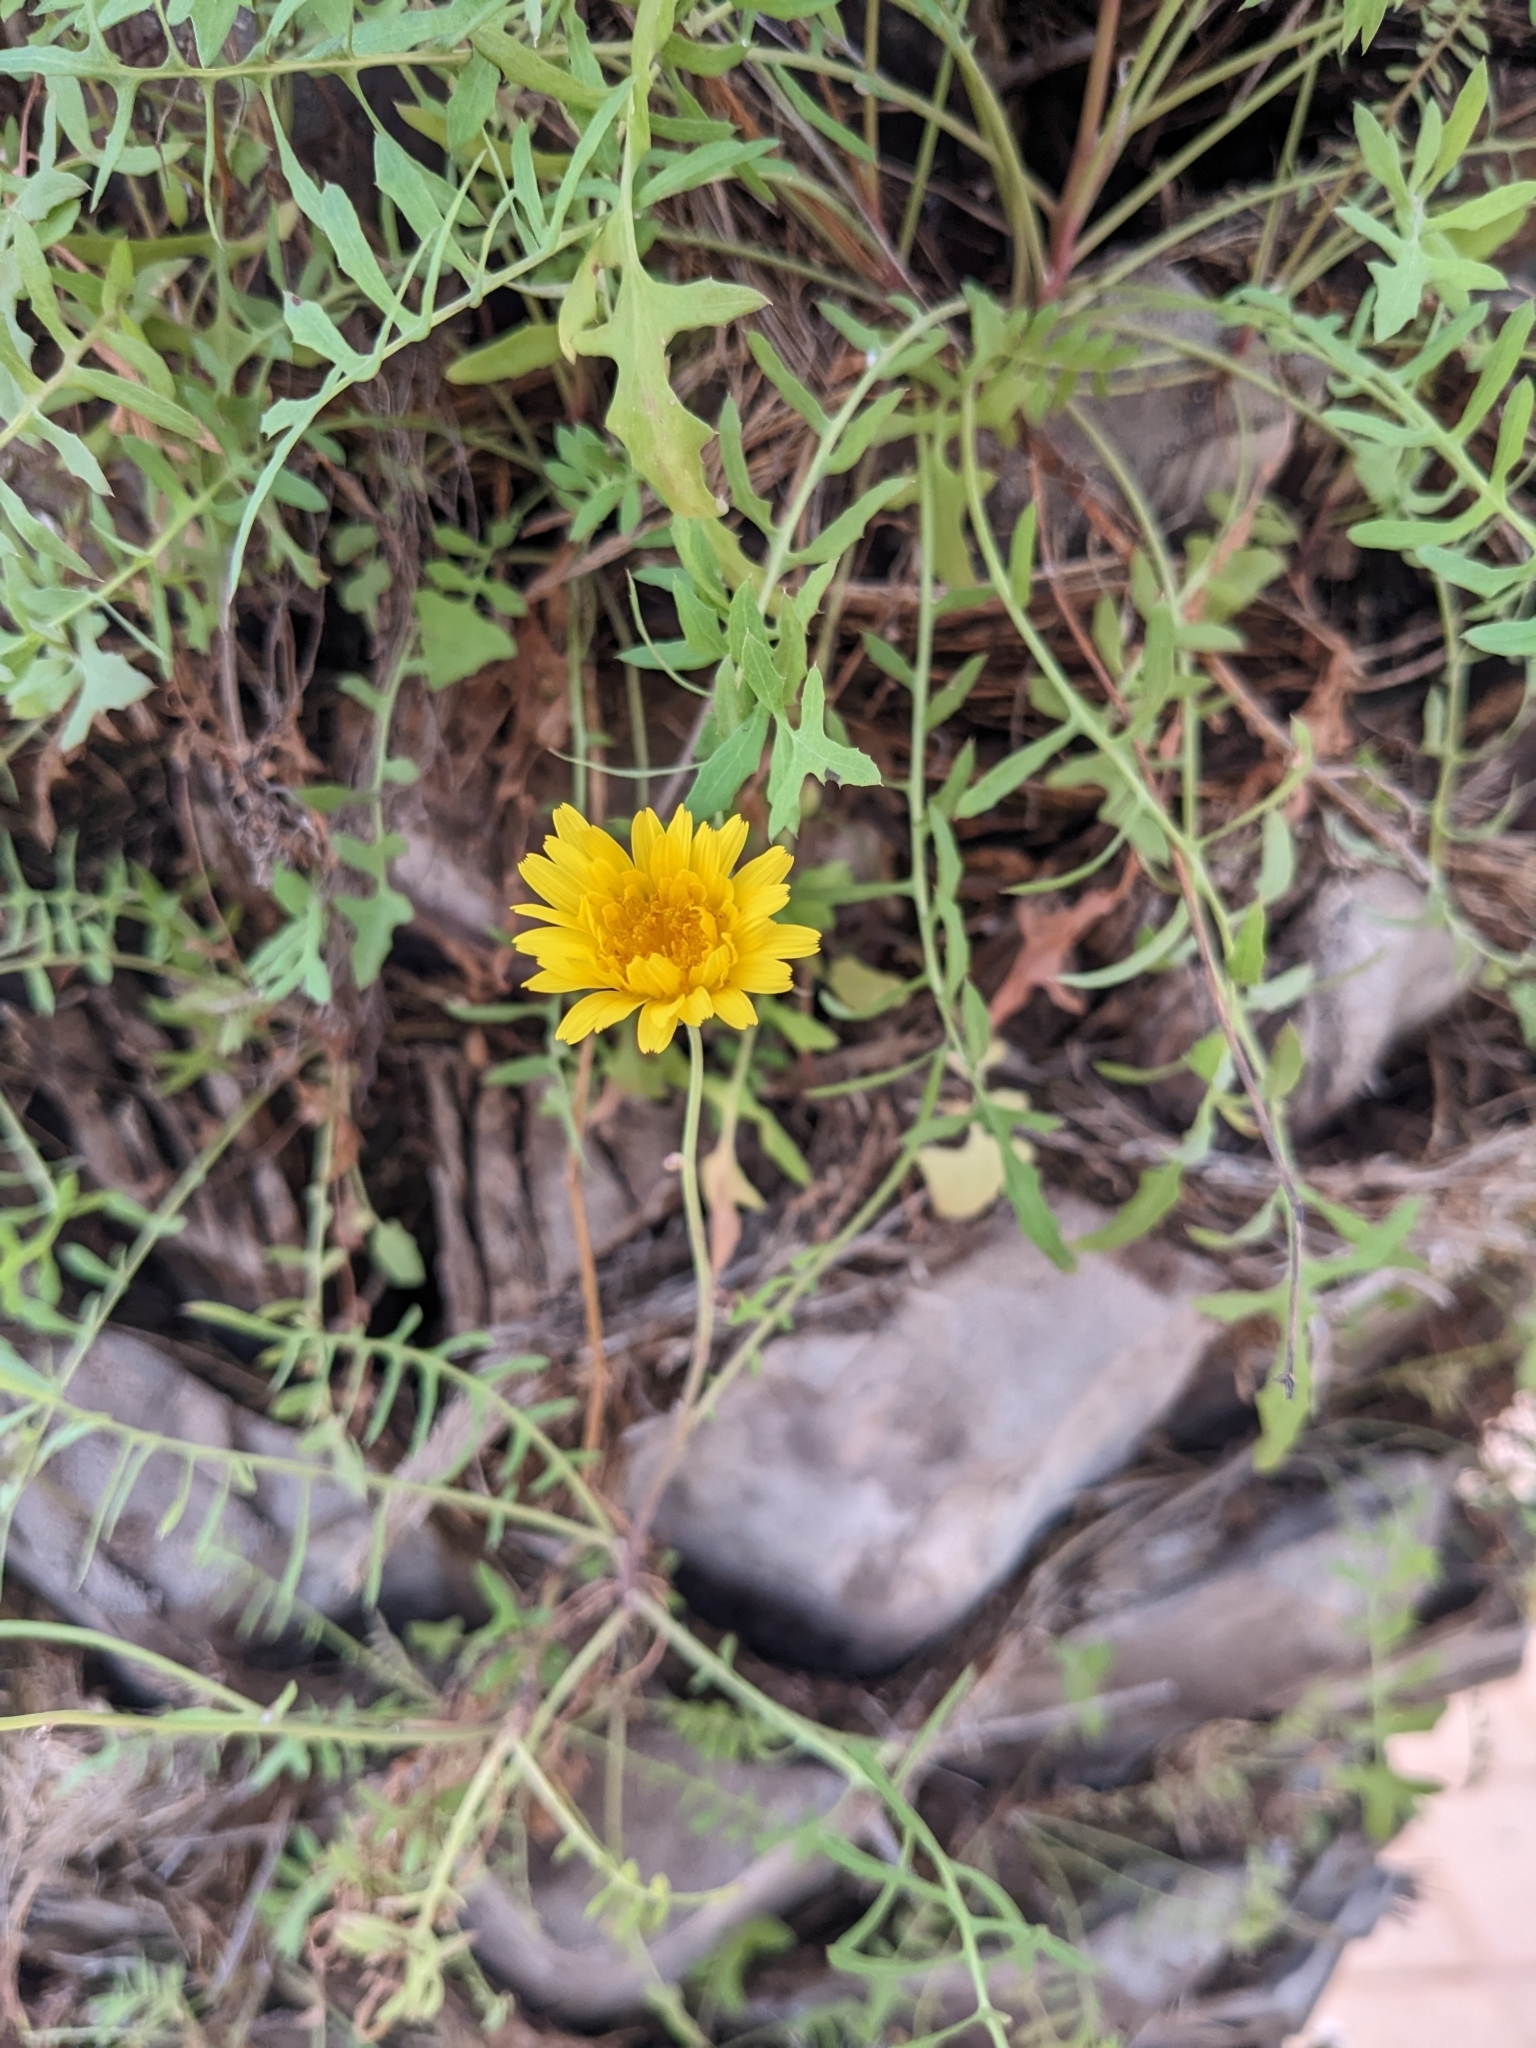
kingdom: Plantae
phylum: Tracheophyta
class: Magnoliopsida
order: Asterales
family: Asteraceae
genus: Sonchus
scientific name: Sonchus tenerrimus
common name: Clammy sowthistle
